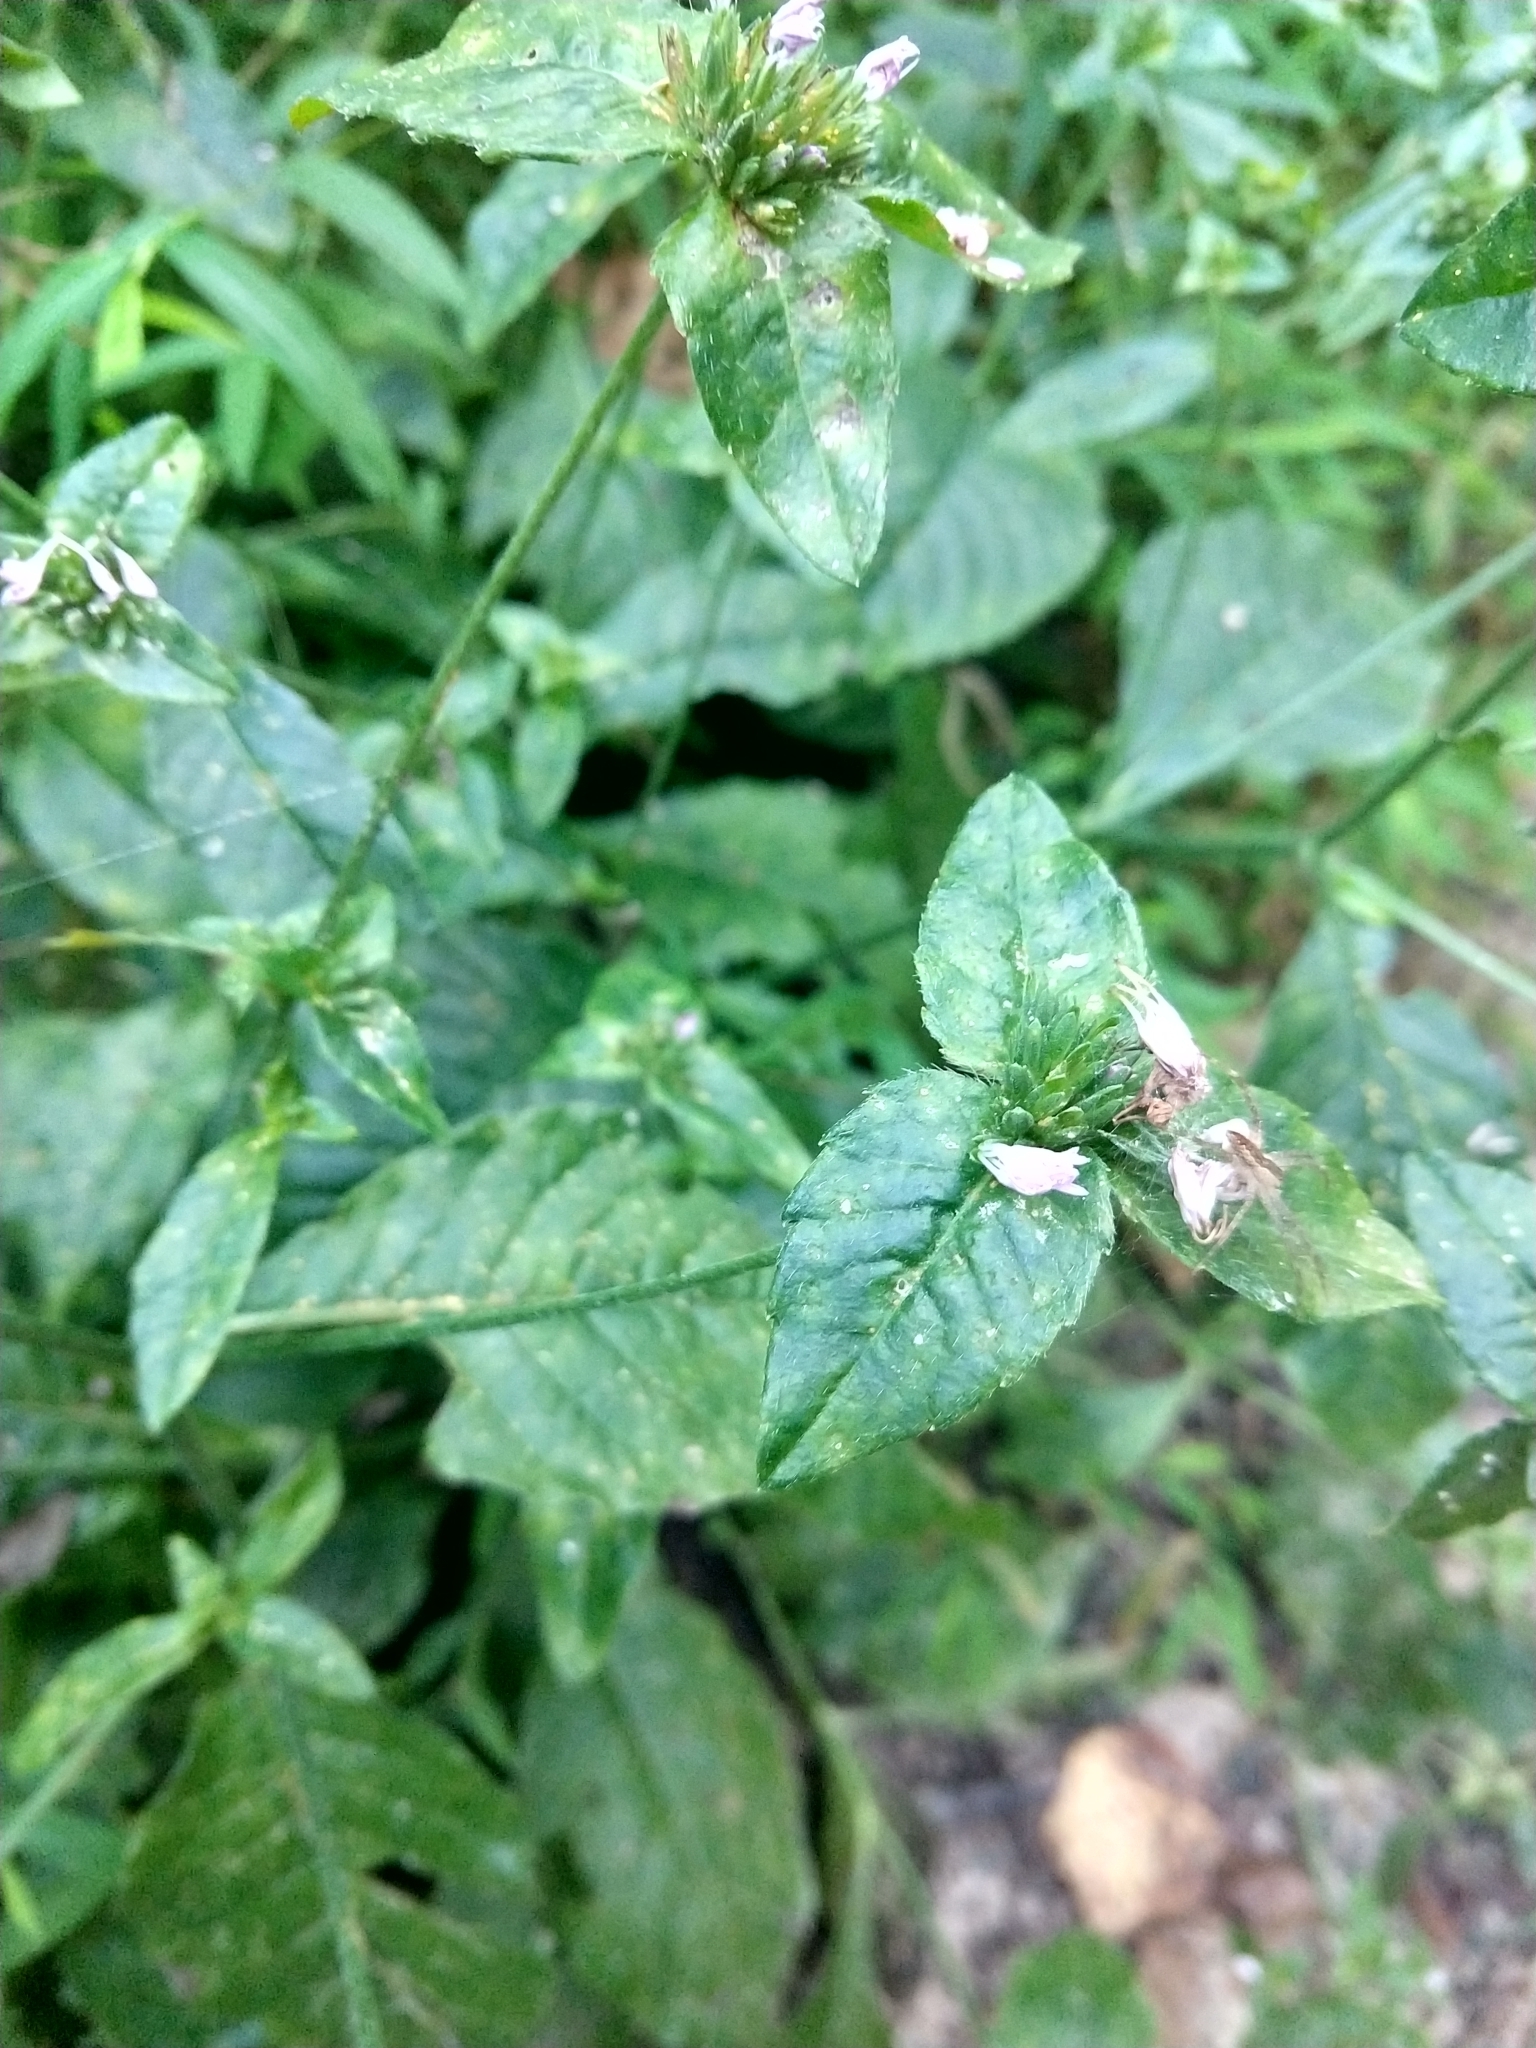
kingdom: Plantae
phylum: Tracheophyta
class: Magnoliopsida
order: Asterales
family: Asteraceae
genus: Elephantopus
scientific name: Elephantopus carolinianus
